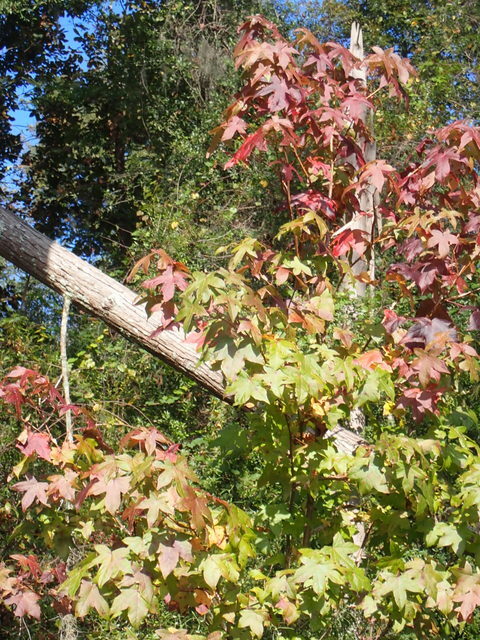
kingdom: Plantae
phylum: Tracheophyta
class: Magnoliopsida
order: Saxifragales
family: Altingiaceae
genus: Liquidambar
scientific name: Liquidambar styraciflua
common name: Sweet gum
